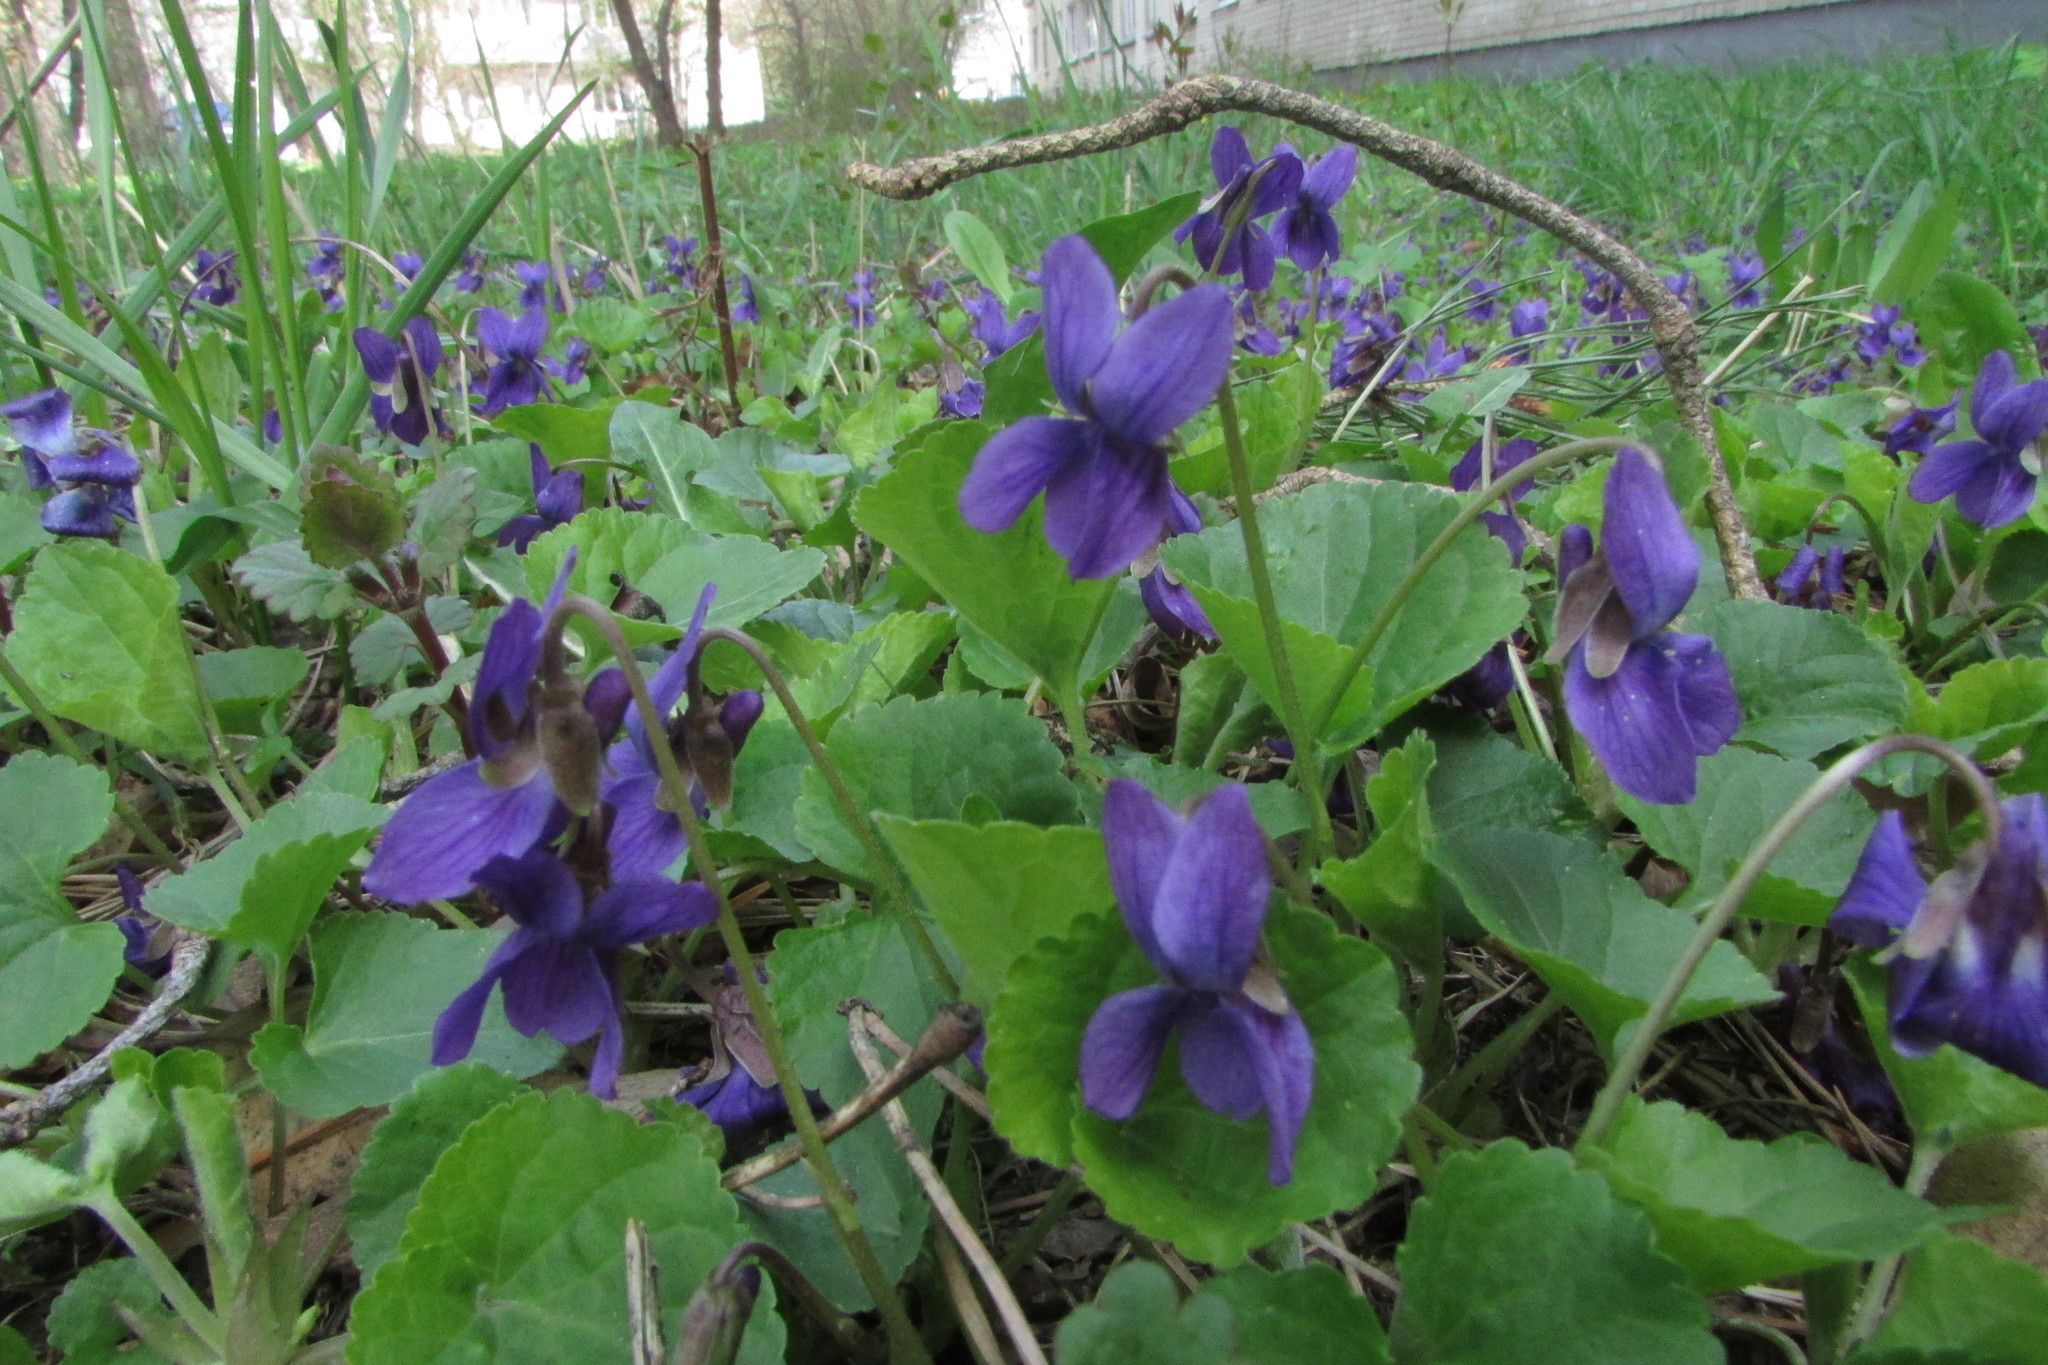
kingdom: Plantae
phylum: Tracheophyta
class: Magnoliopsida
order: Malpighiales
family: Violaceae
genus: Viola
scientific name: Viola odorata
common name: Sweet violet
